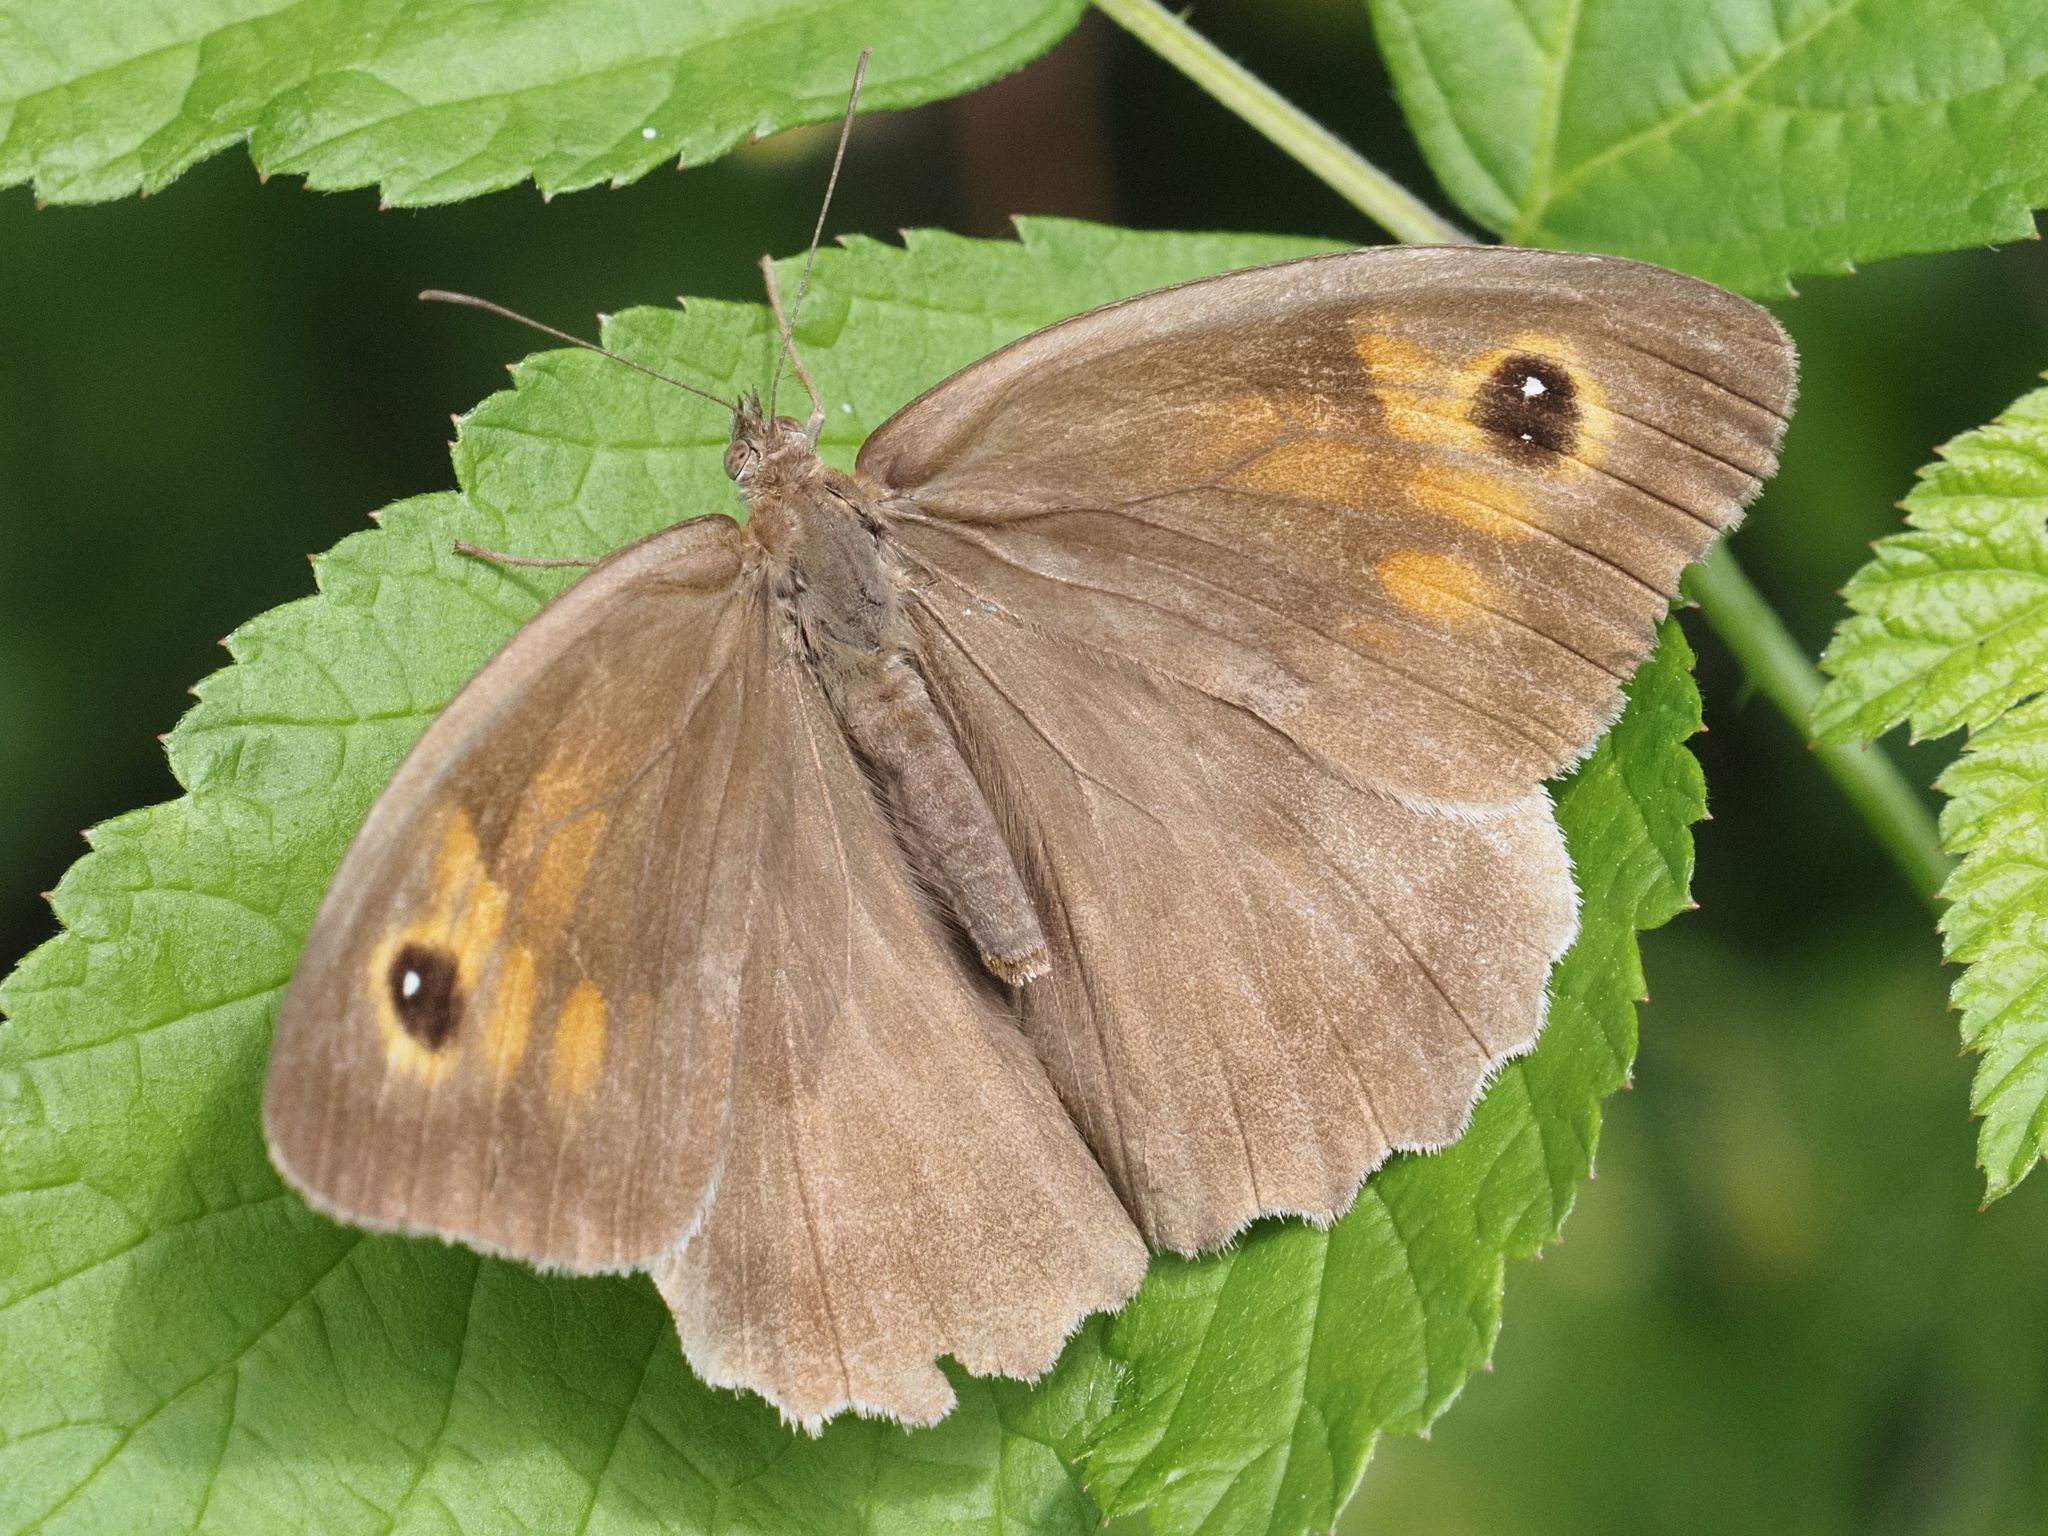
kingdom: Animalia
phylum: Arthropoda
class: Insecta
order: Lepidoptera
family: Nymphalidae
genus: Maniola
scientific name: Maniola jurtina
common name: Meadow brown
